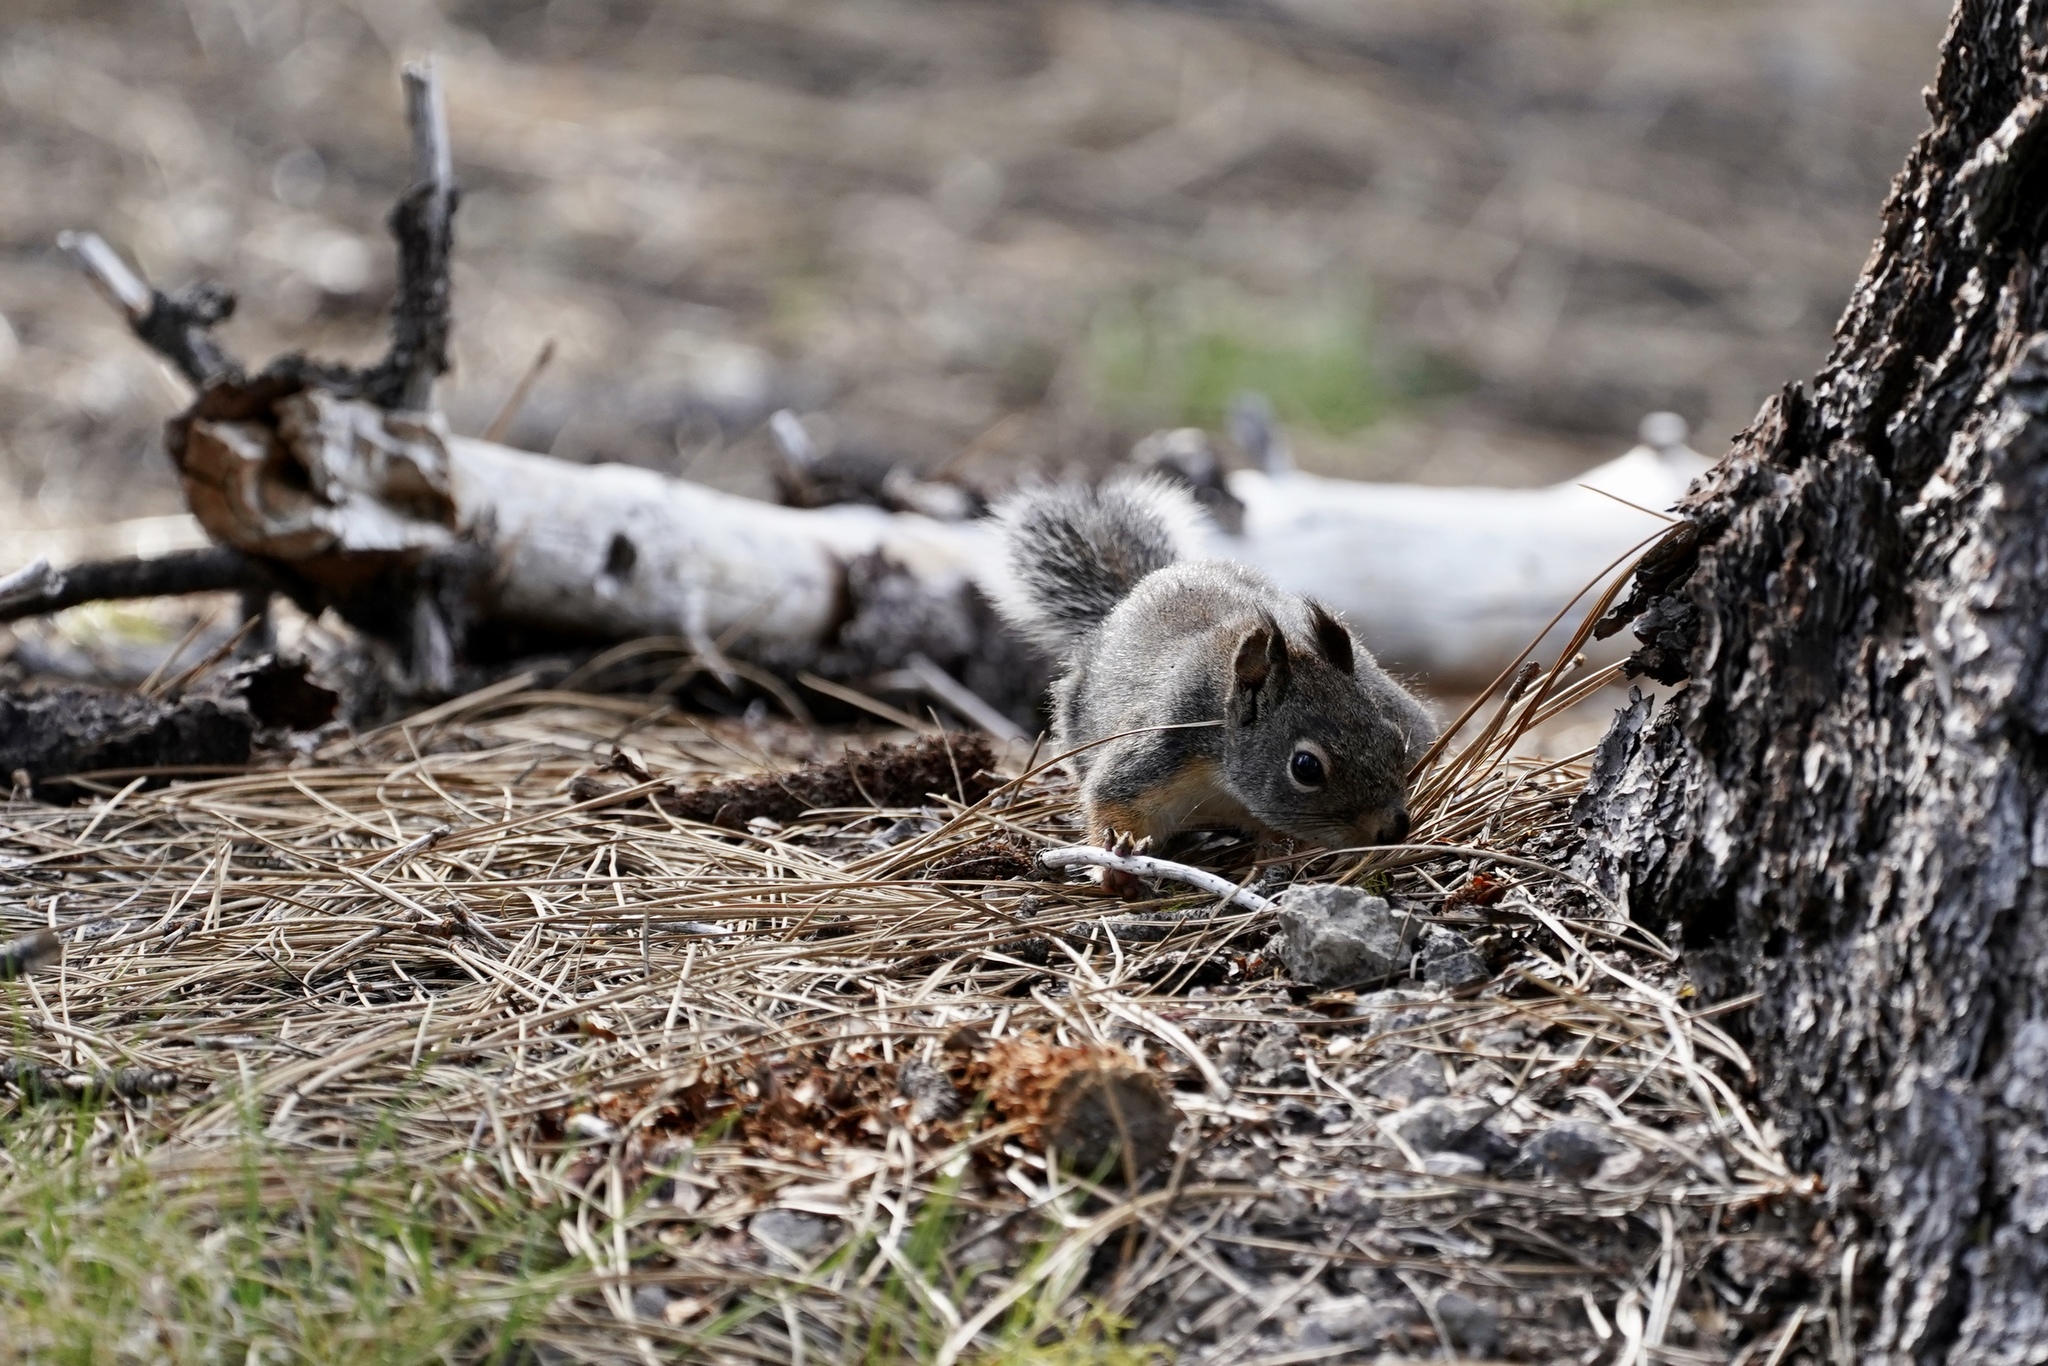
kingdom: Animalia
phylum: Chordata
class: Mammalia
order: Rodentia
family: Sciuridae
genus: Tamiasciurus
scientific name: Tamiasciurus douglasii
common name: Douglas's squirrel
